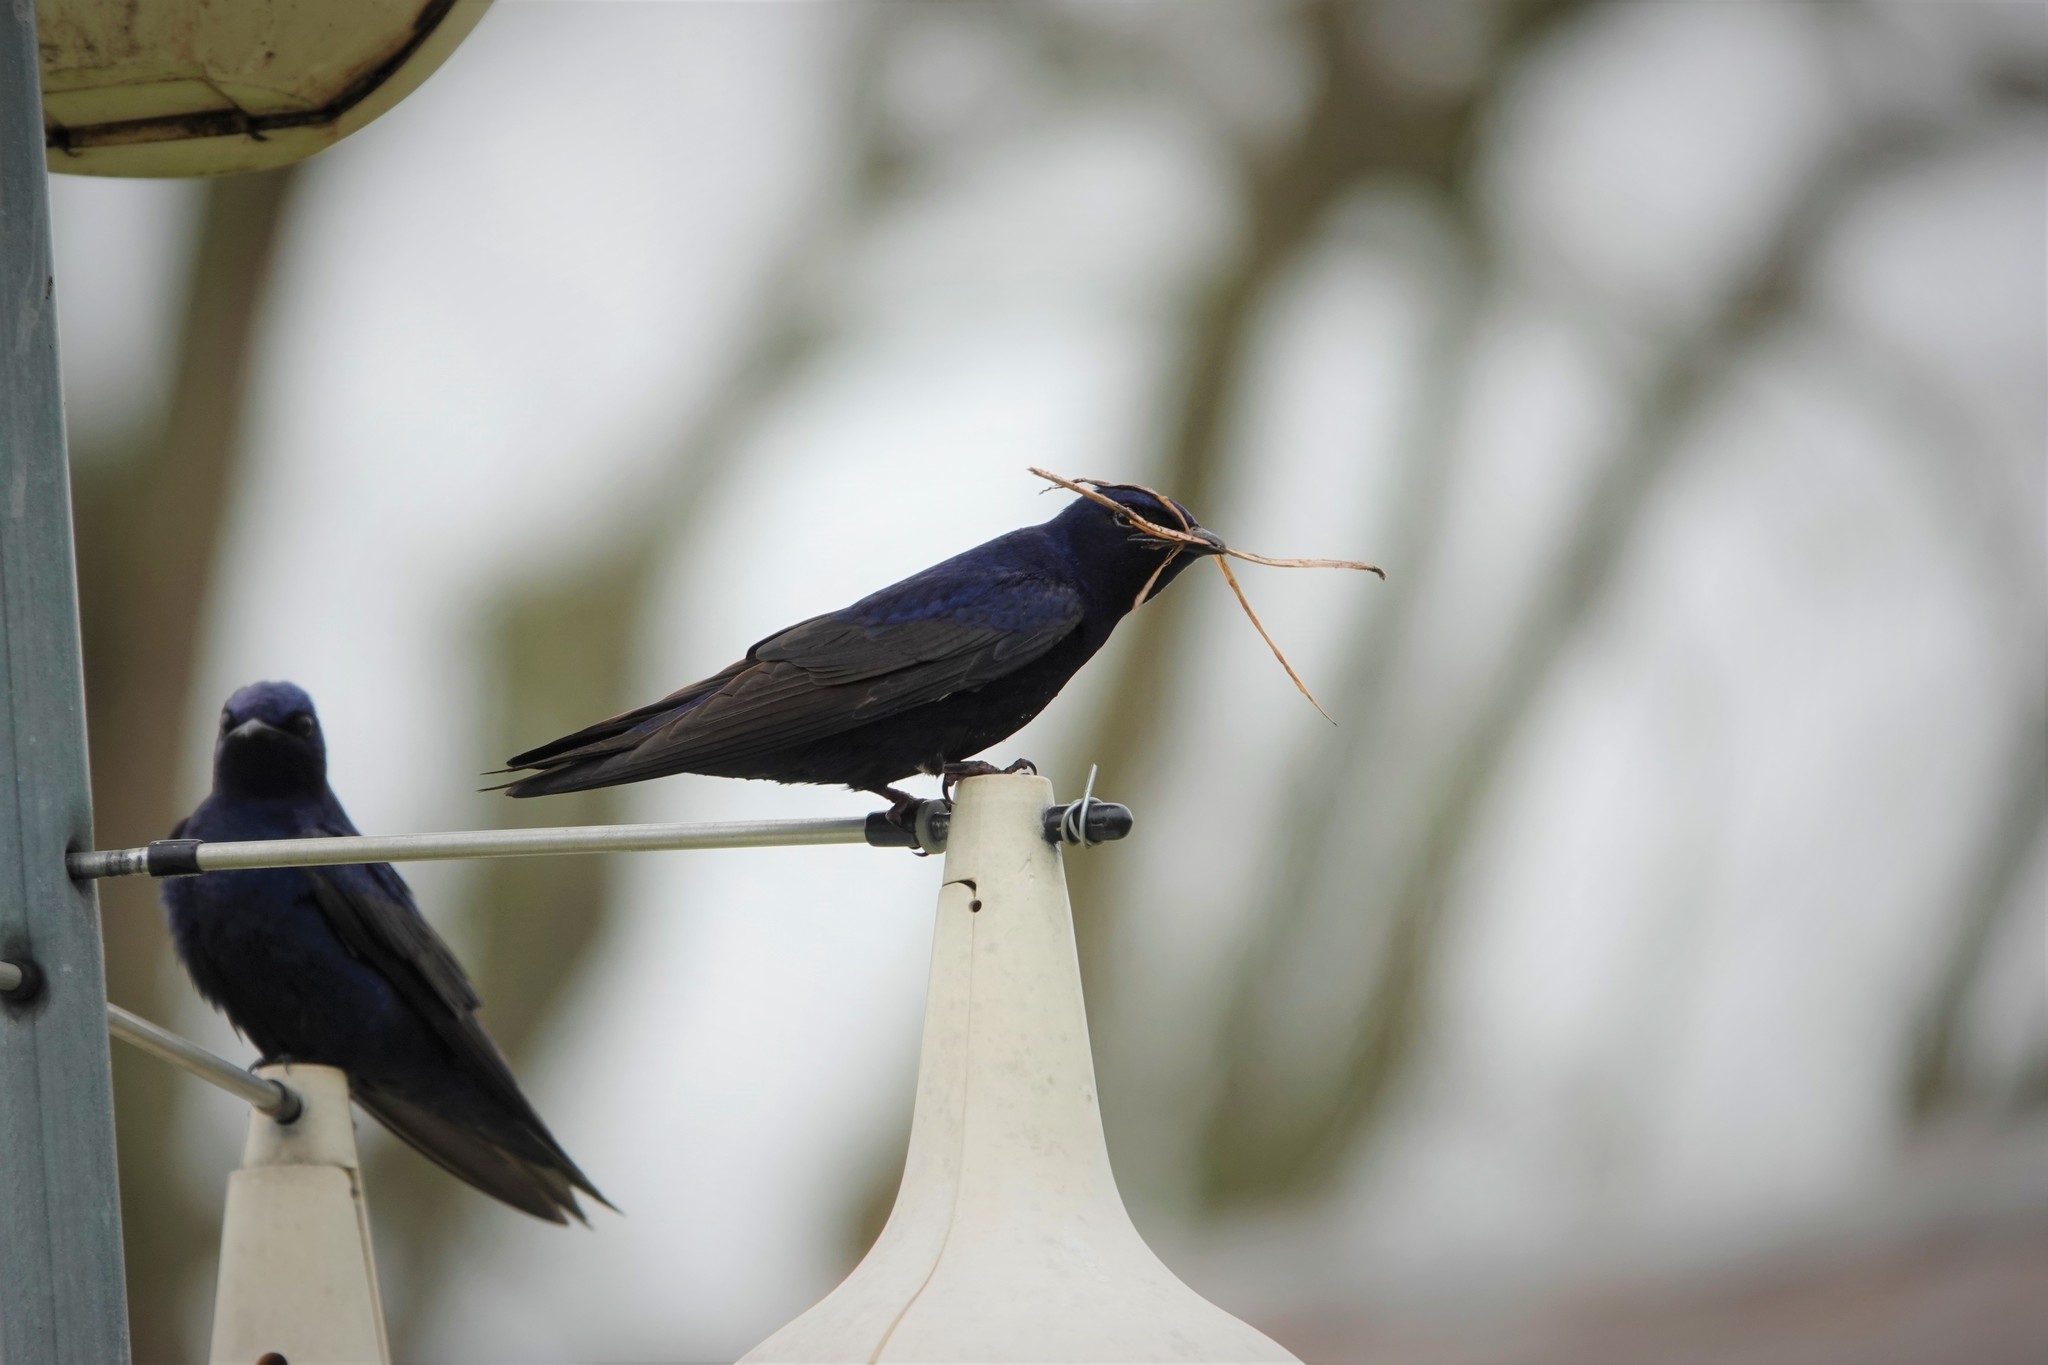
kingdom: Animalia
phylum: Chordata
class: Aves
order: Passeriformes
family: Hirundinidae
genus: Progne
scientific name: Progne subis
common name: Purple martin
